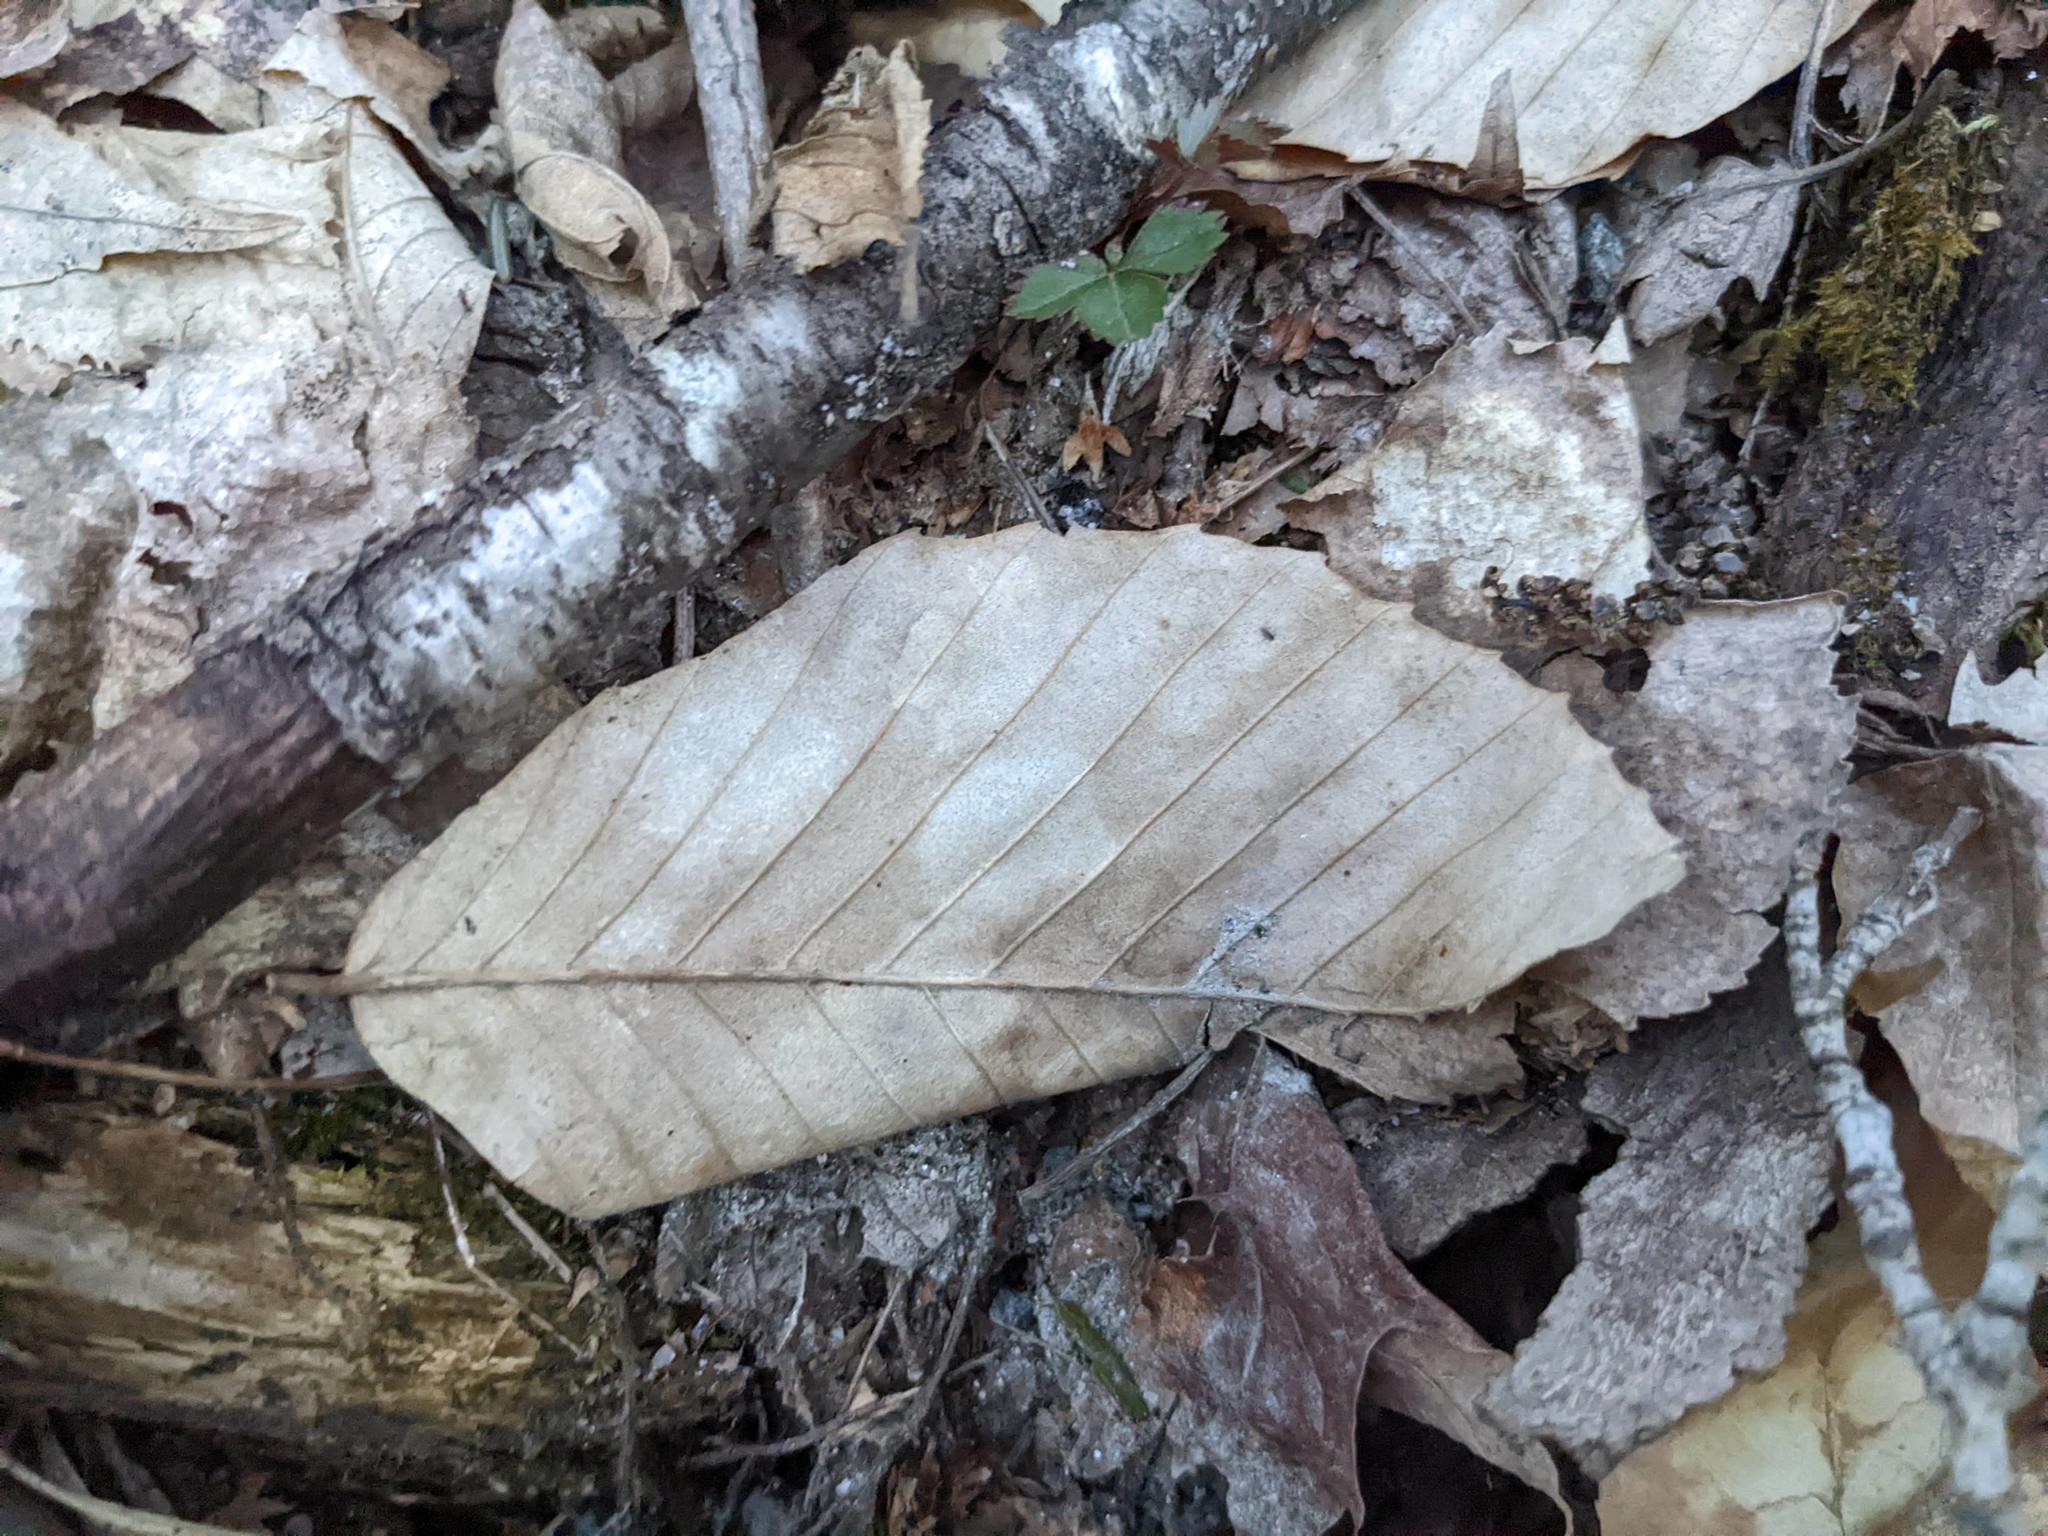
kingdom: Plantae
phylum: Tracheophyta
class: Magnoliopsida
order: Fagales
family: Fagaceae
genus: Fagus
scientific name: Fagus grandifolia
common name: American beech
